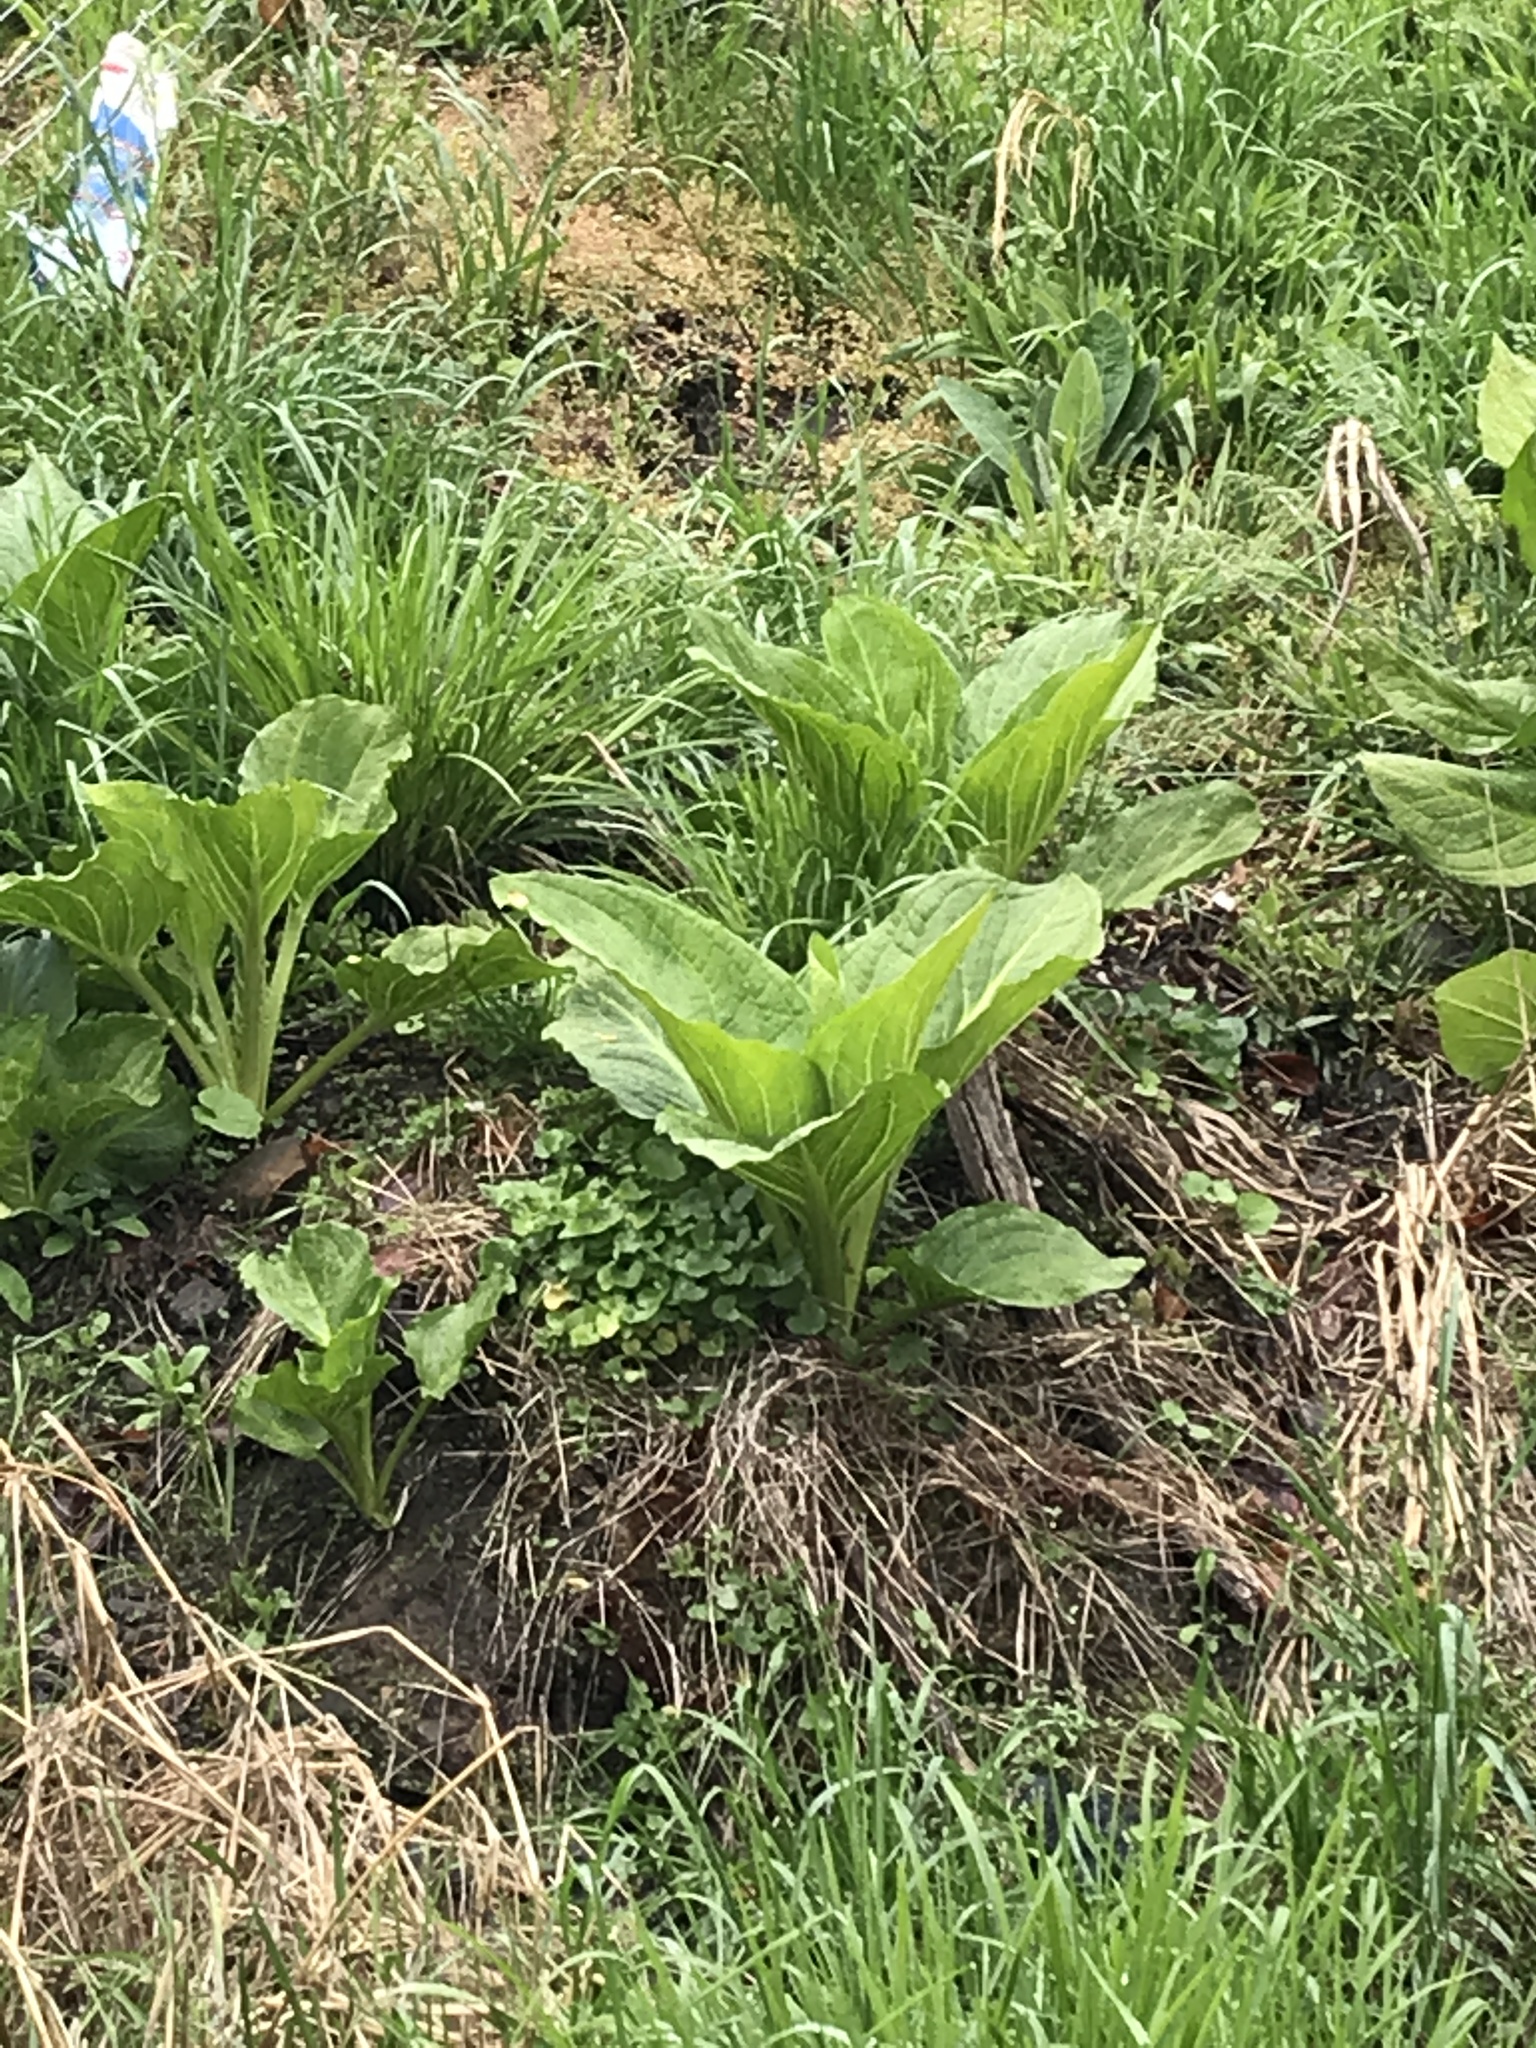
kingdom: Plantae
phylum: Tracheophyta
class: Liliopsida
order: Alismatales
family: Araceae
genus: Symplocarpus
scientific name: Symplocarpus foetidus
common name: Eastern skunk cabbage
